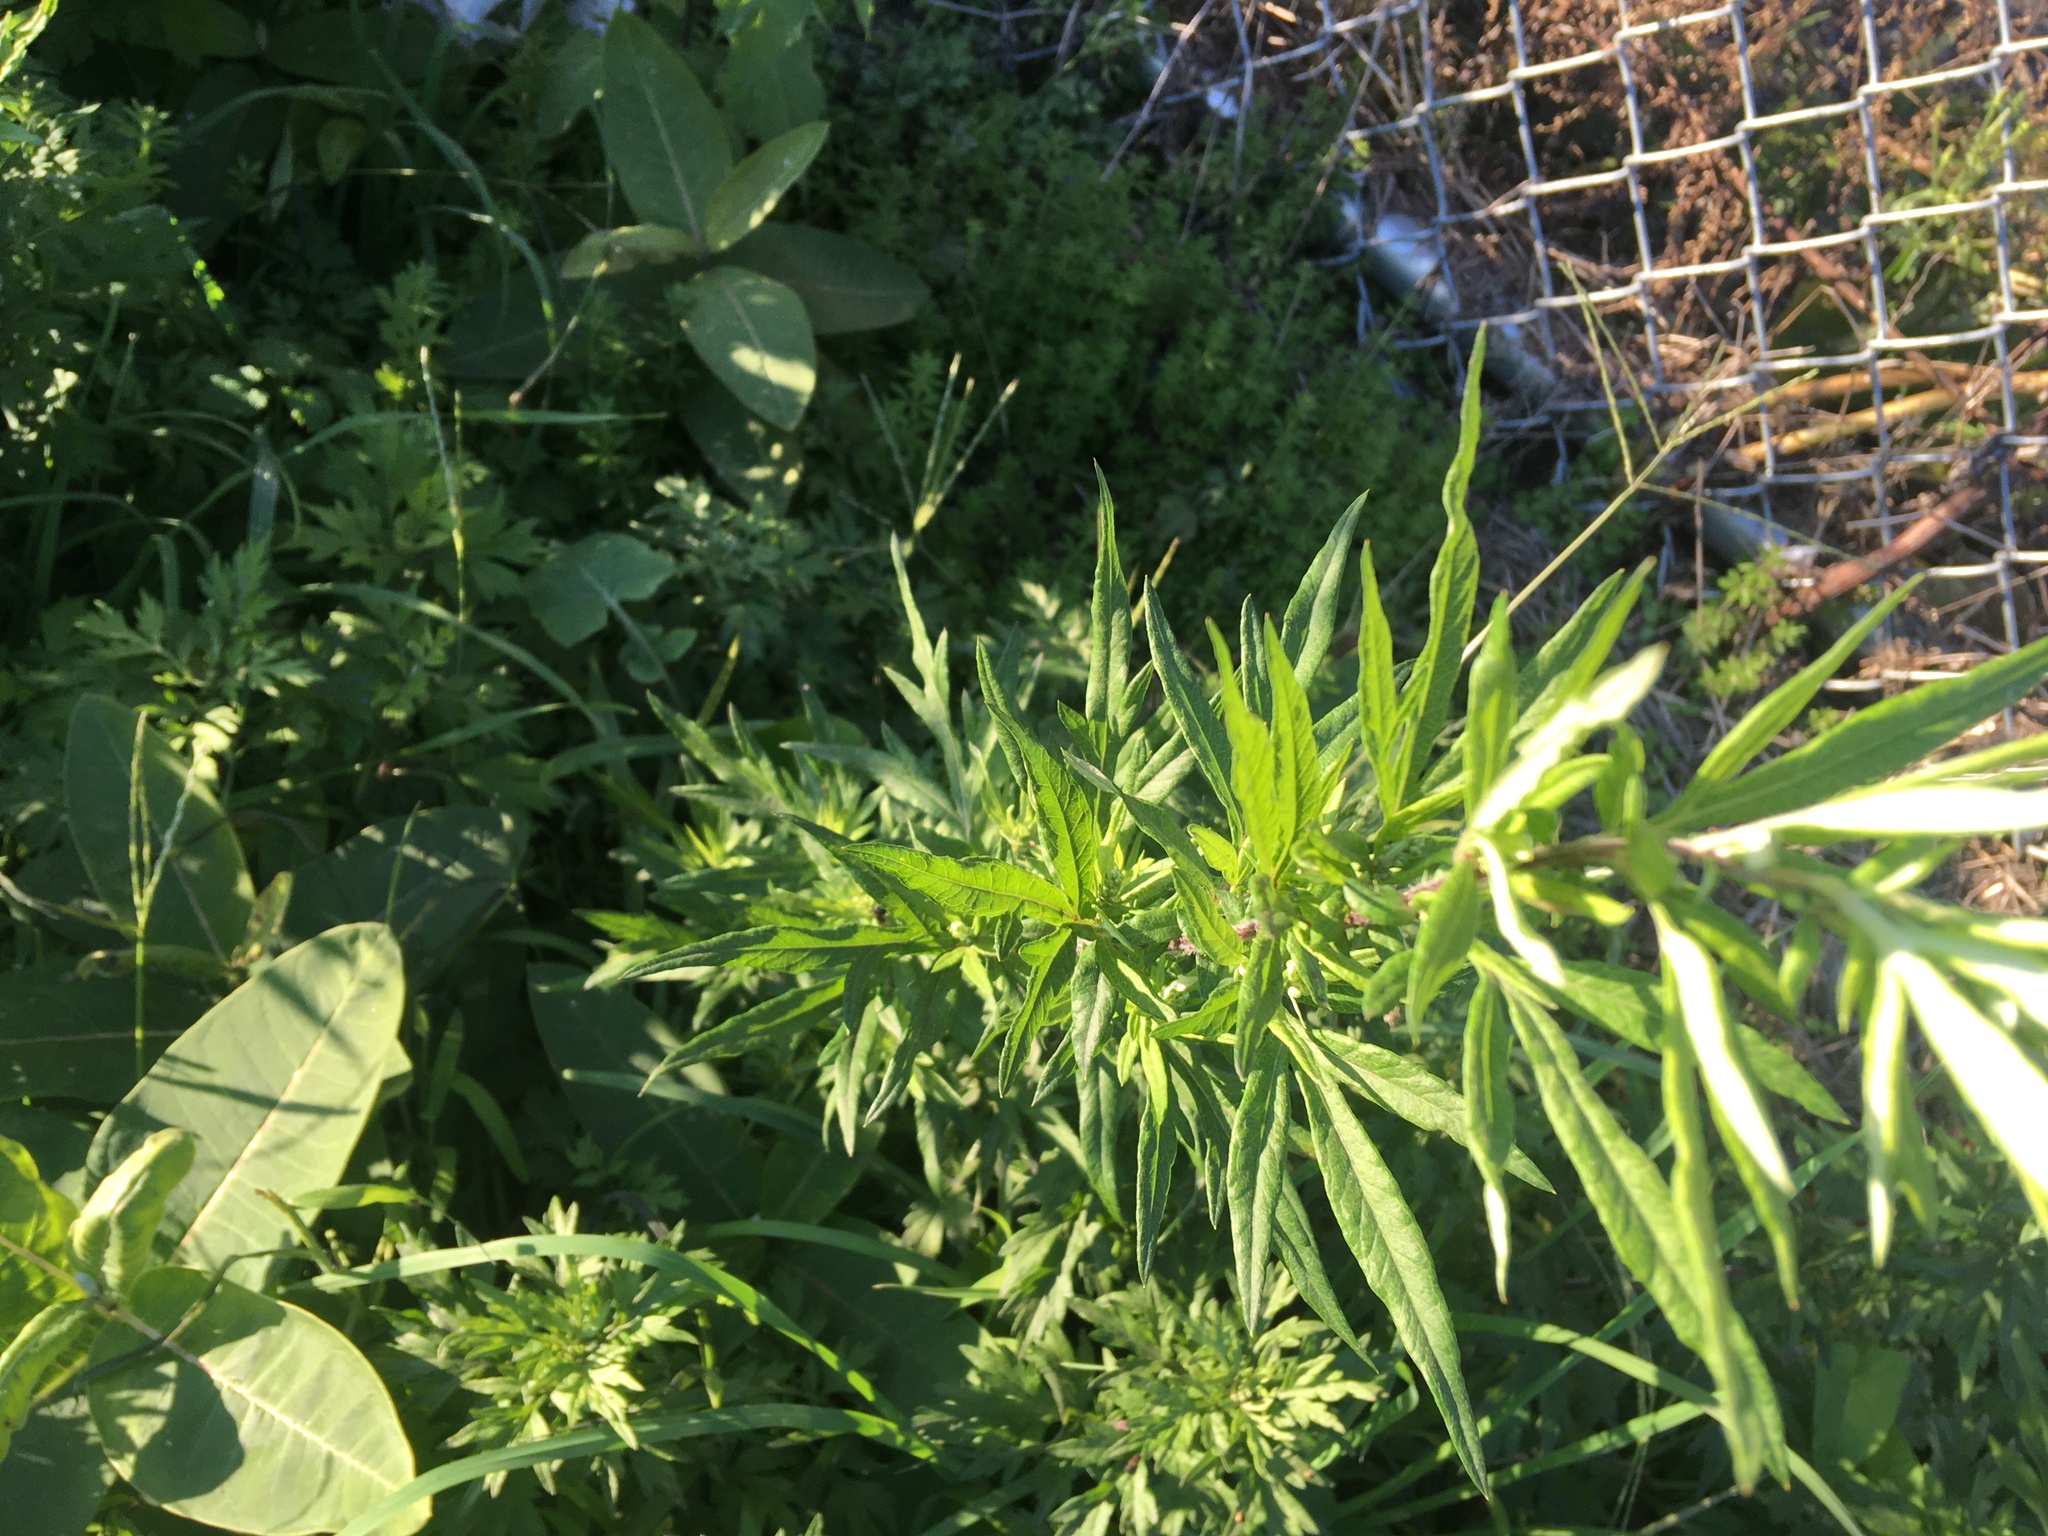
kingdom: Plantae
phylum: Tracheophyta
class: Magnoliopsida
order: Asterales
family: Asteraceae
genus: Artemisia
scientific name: Artemisia vulgaris
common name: Mugwort
